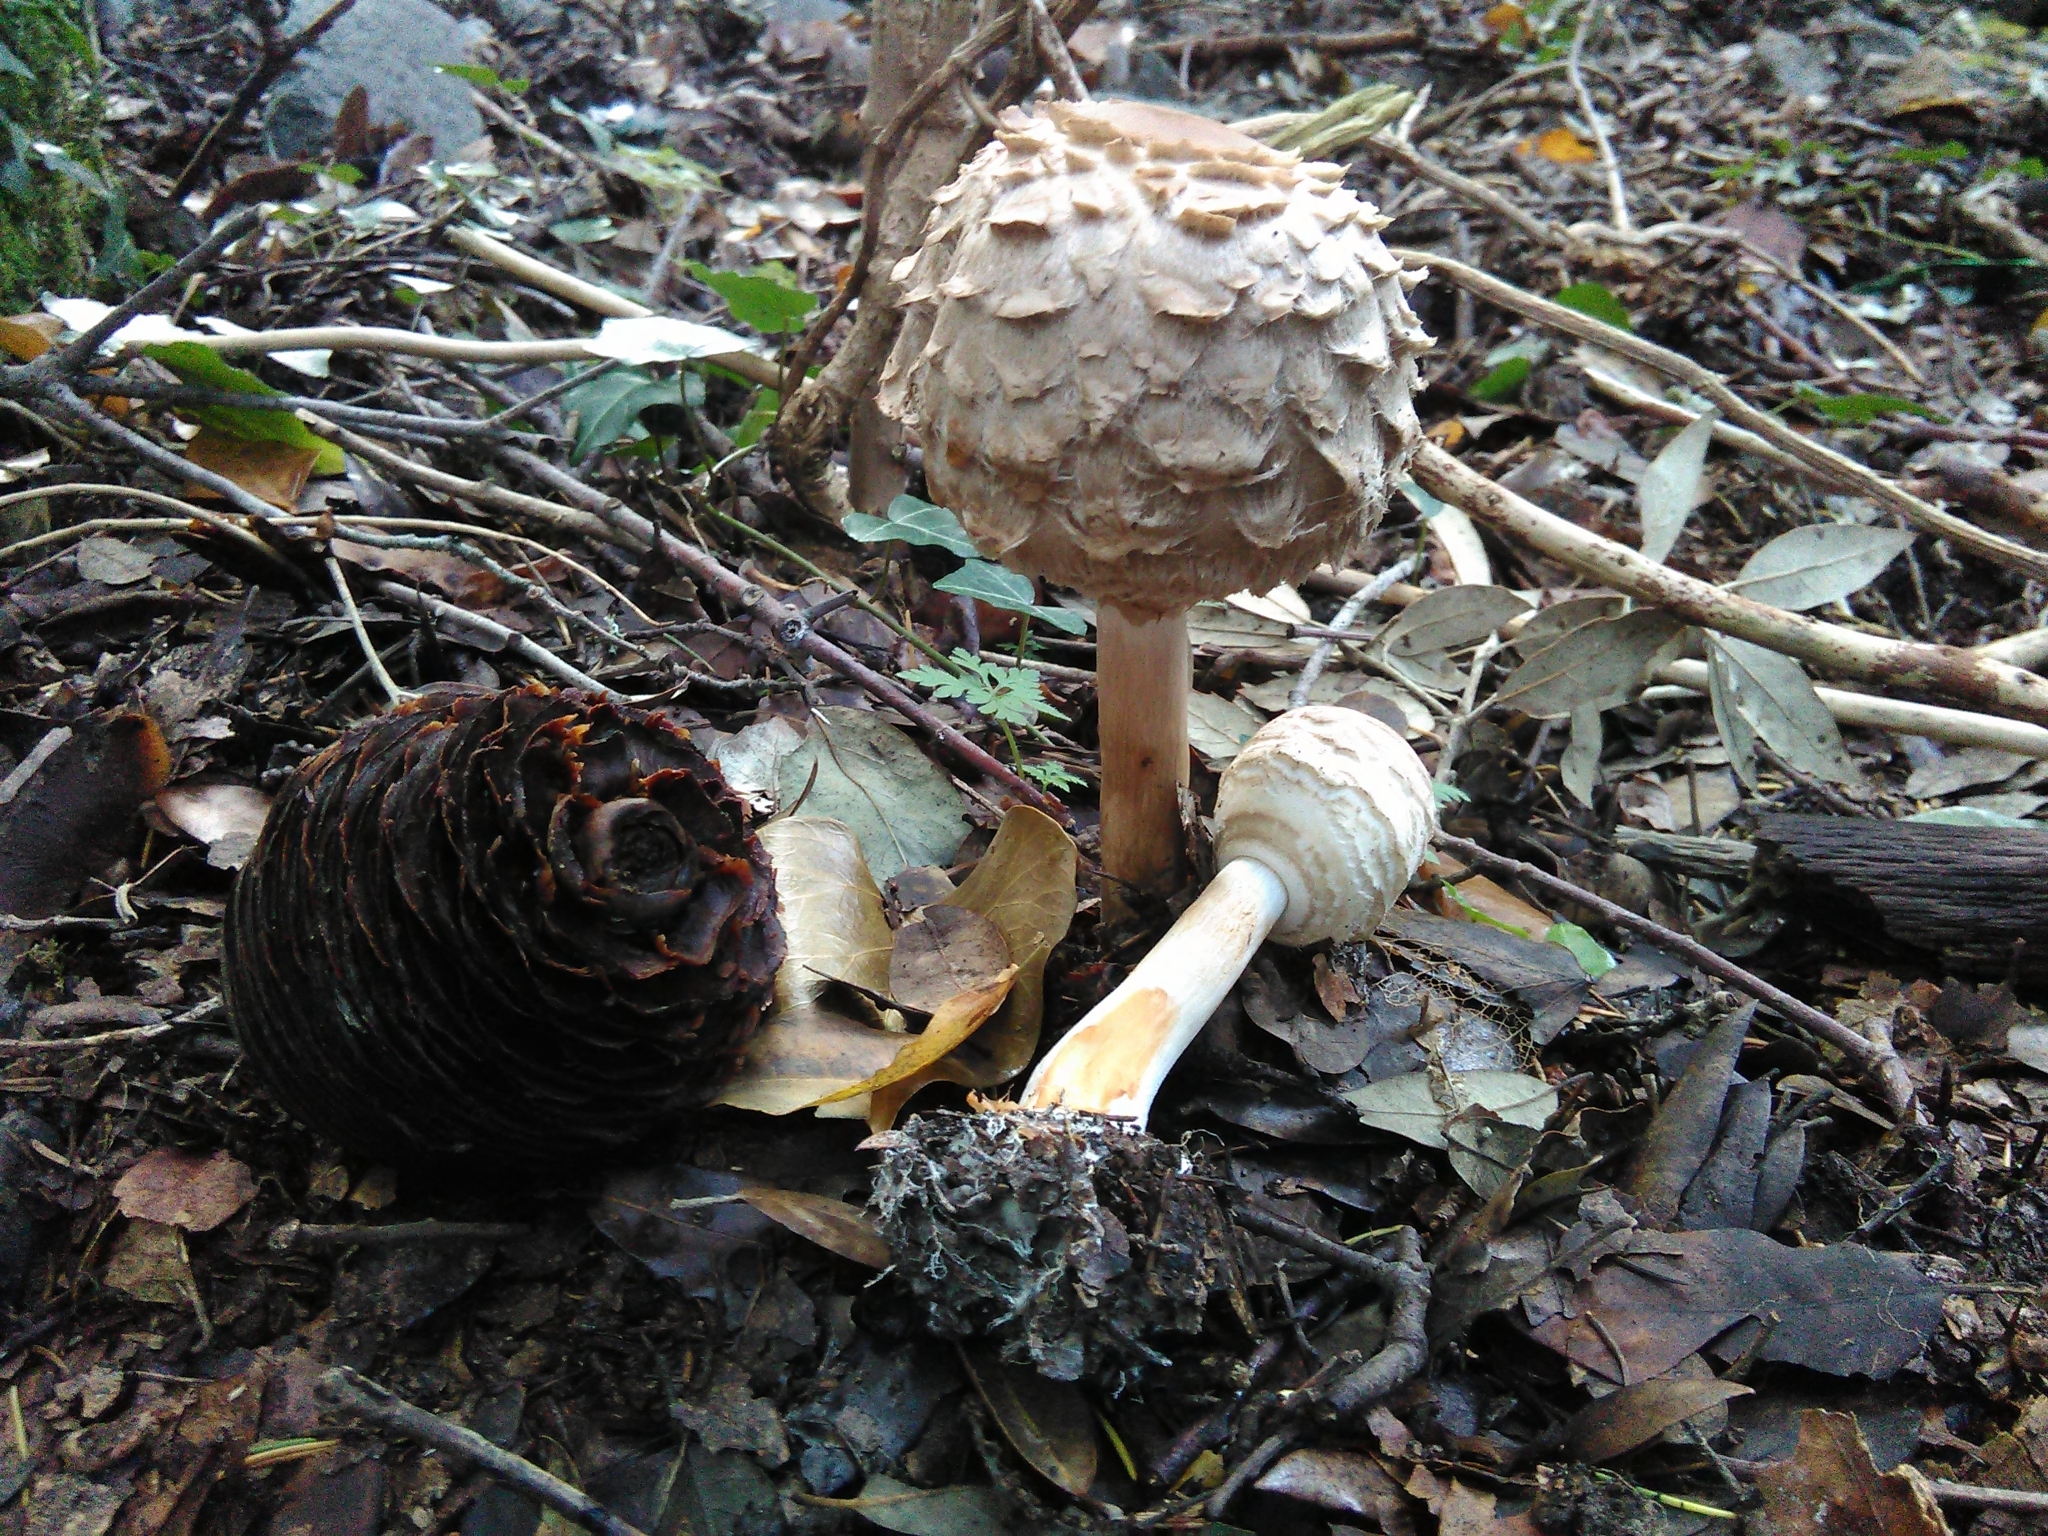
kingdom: Fungi
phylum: Basidiomycota
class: Agaricomycetes
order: Agaricales
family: Agaricaceae
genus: Chlorophyllum
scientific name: Chlorophyllum olivieri
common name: Conifer parasol
